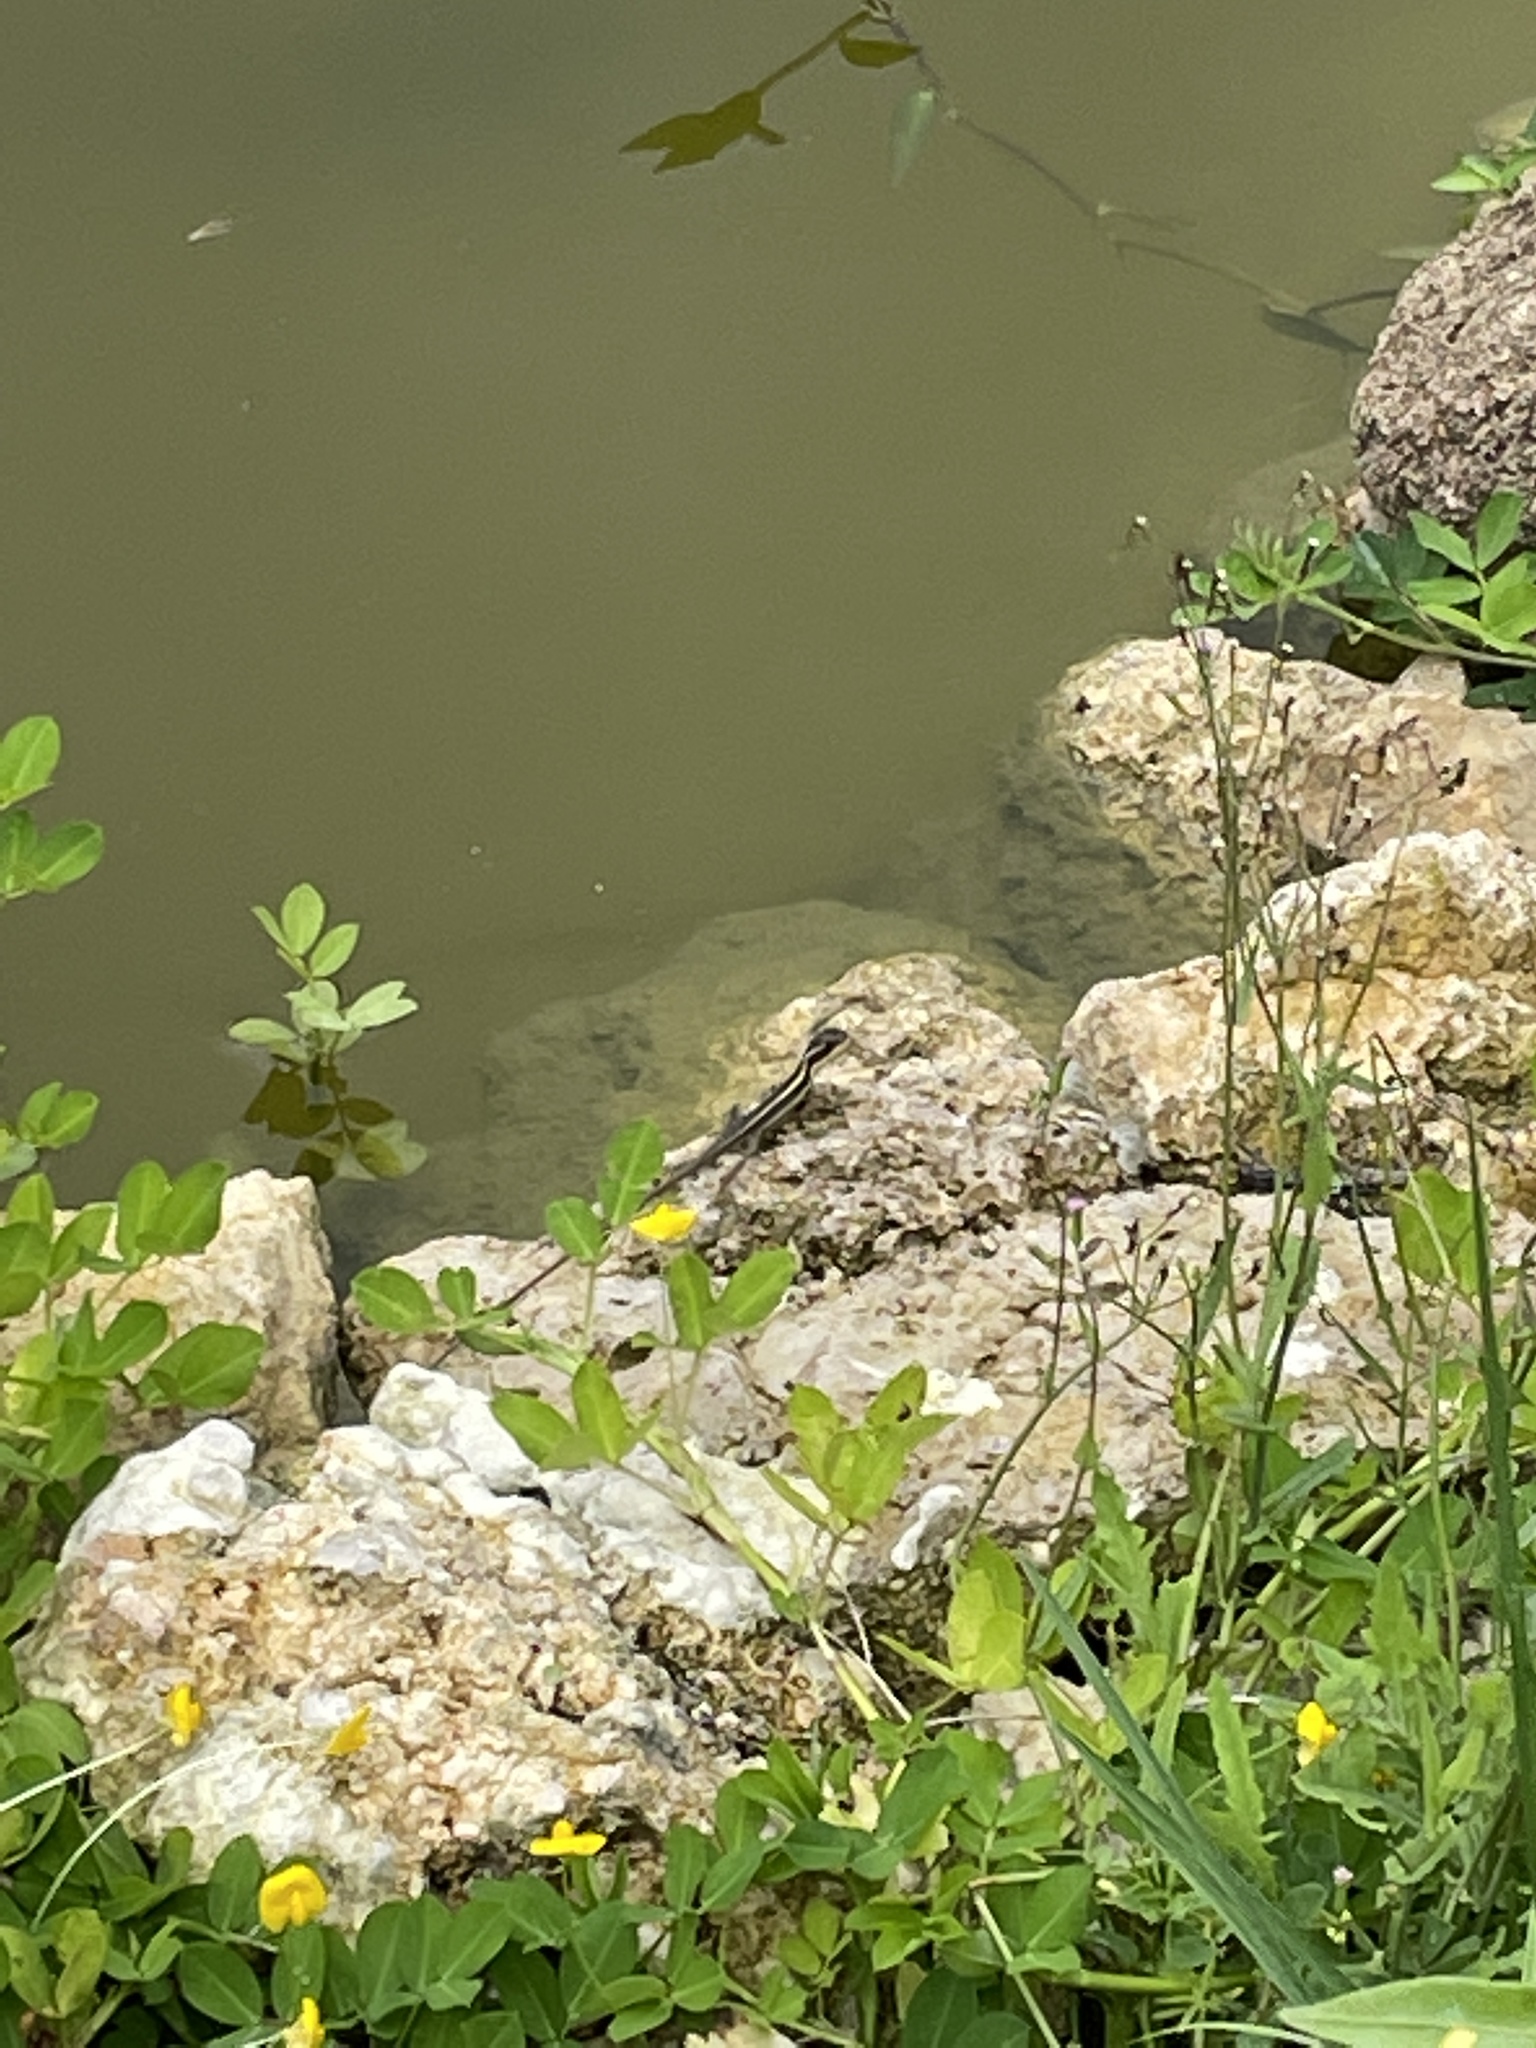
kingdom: Animalia
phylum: Chordata
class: Squamata
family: Corytophanidae
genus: Basiliscus
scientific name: Basiliscus vittatus
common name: Brown basilisk
